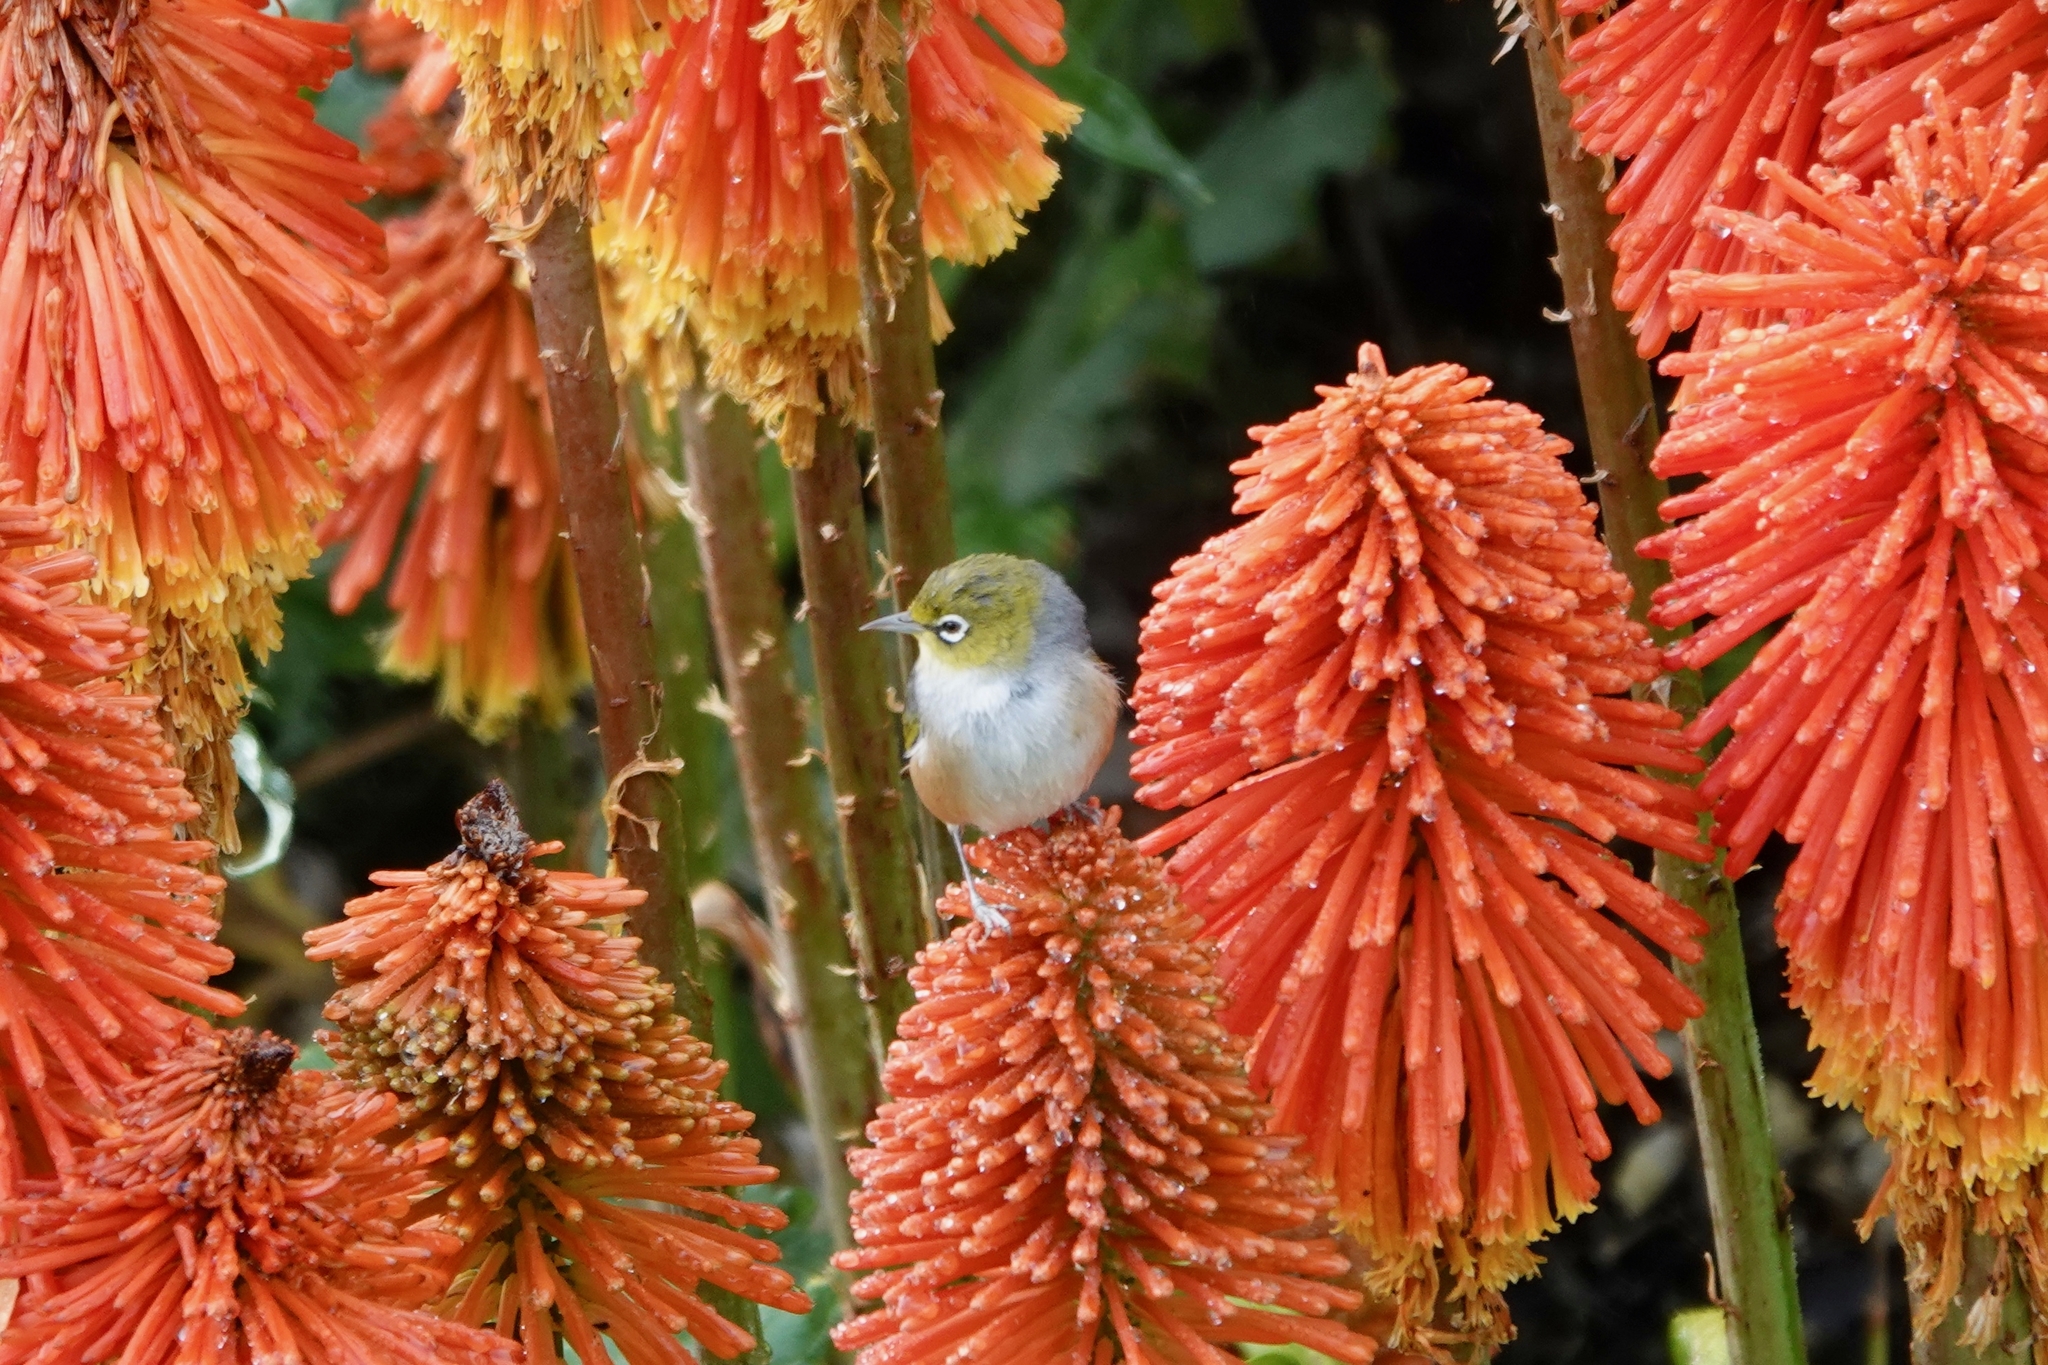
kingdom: Animalia
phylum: Chordata
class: Aves
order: Passeriformes
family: Zosteropidae
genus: Zosterops
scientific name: Zosterops lateralis
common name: Silvereye
